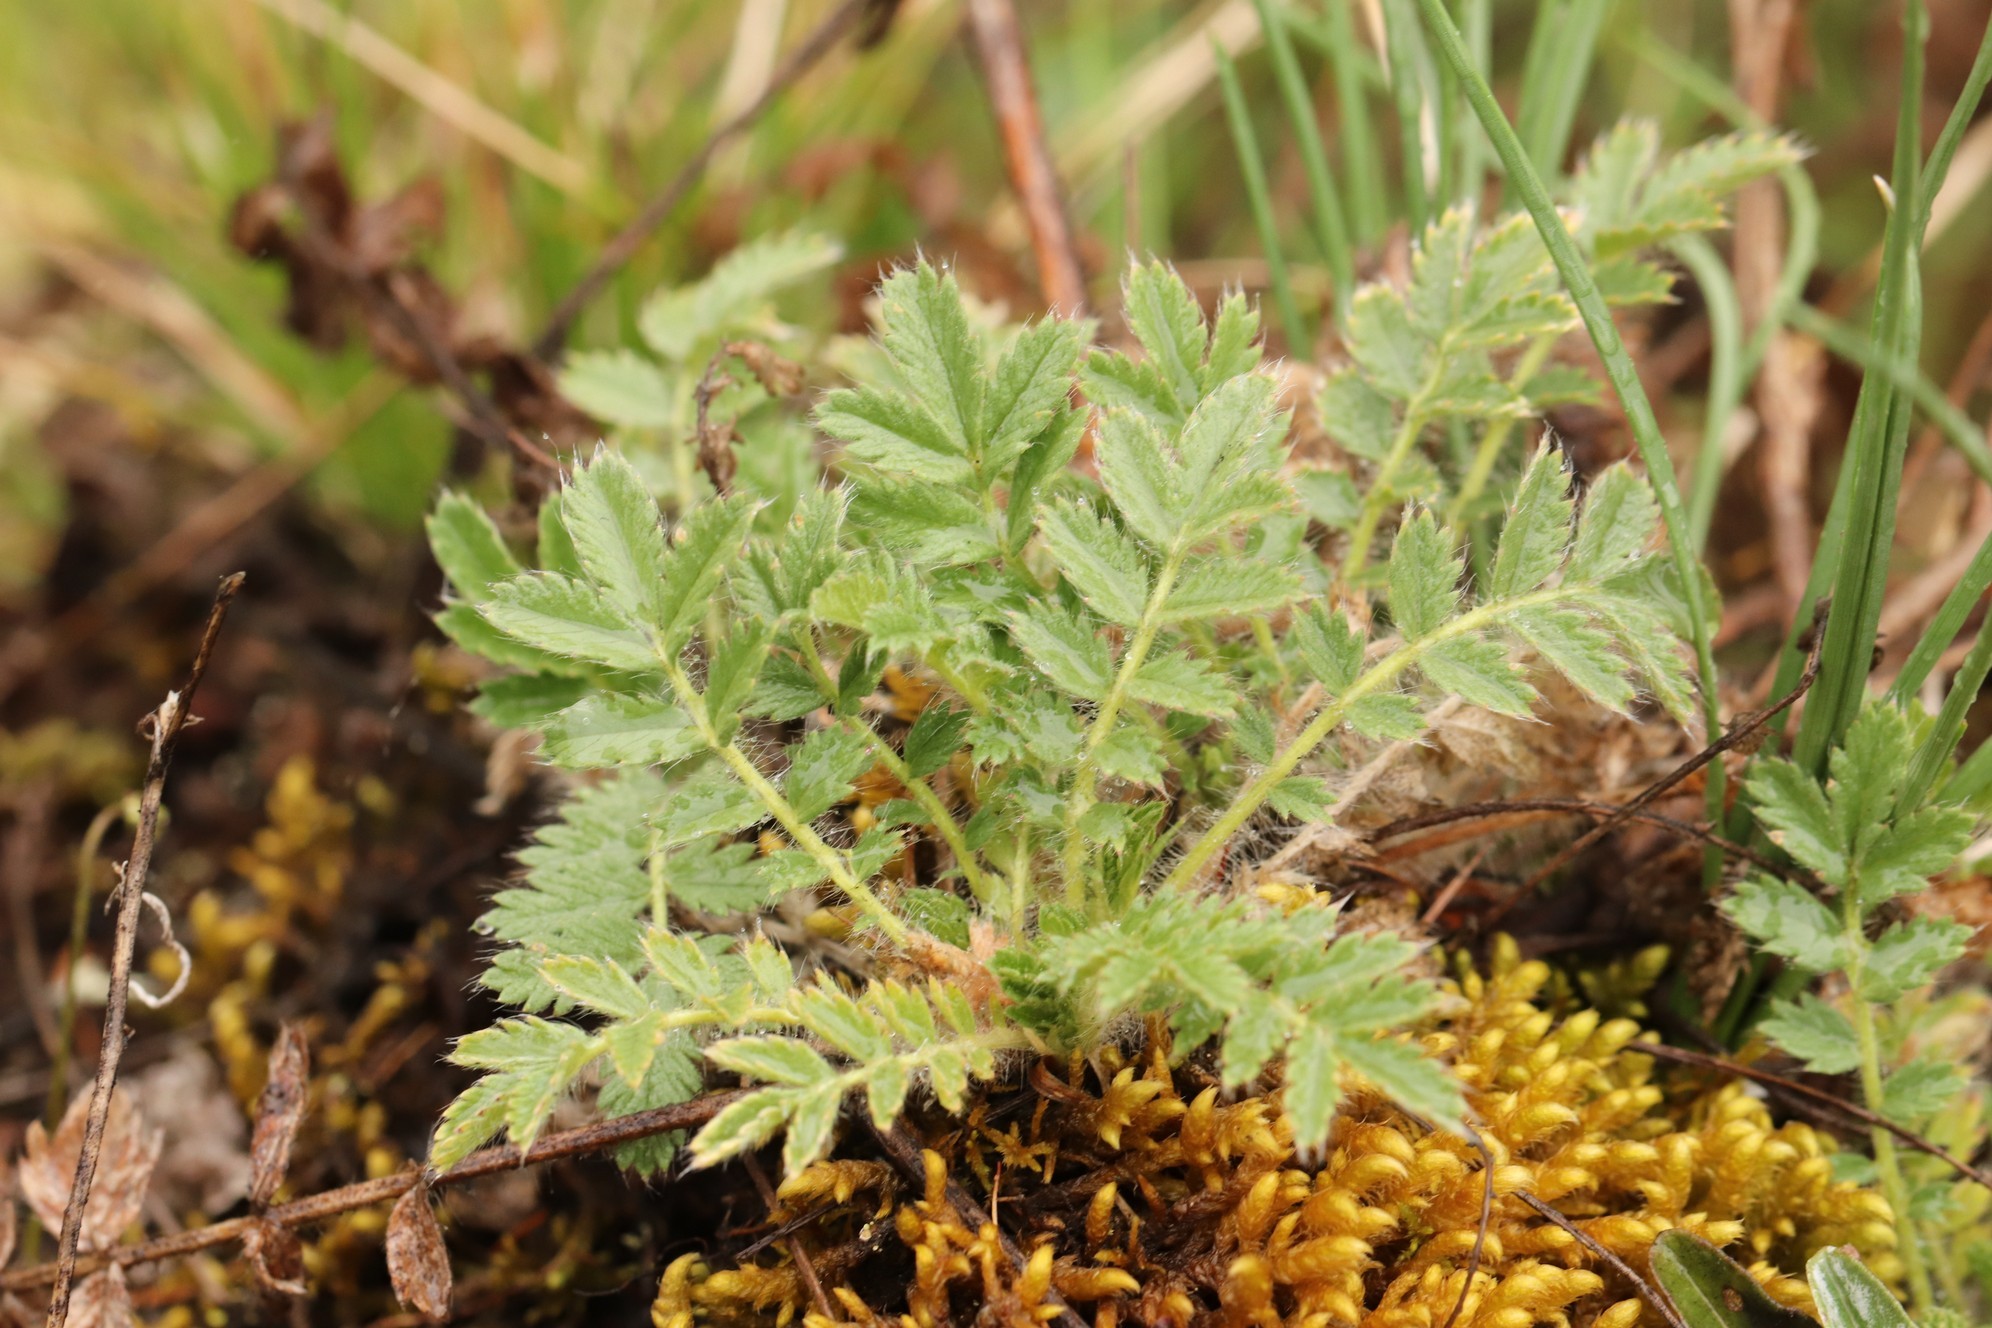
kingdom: Plantae
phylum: Tracheophyta
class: Magnoliopsida
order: Rosales
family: Rosaceae
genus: Potentilla
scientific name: Potentilla sericea
